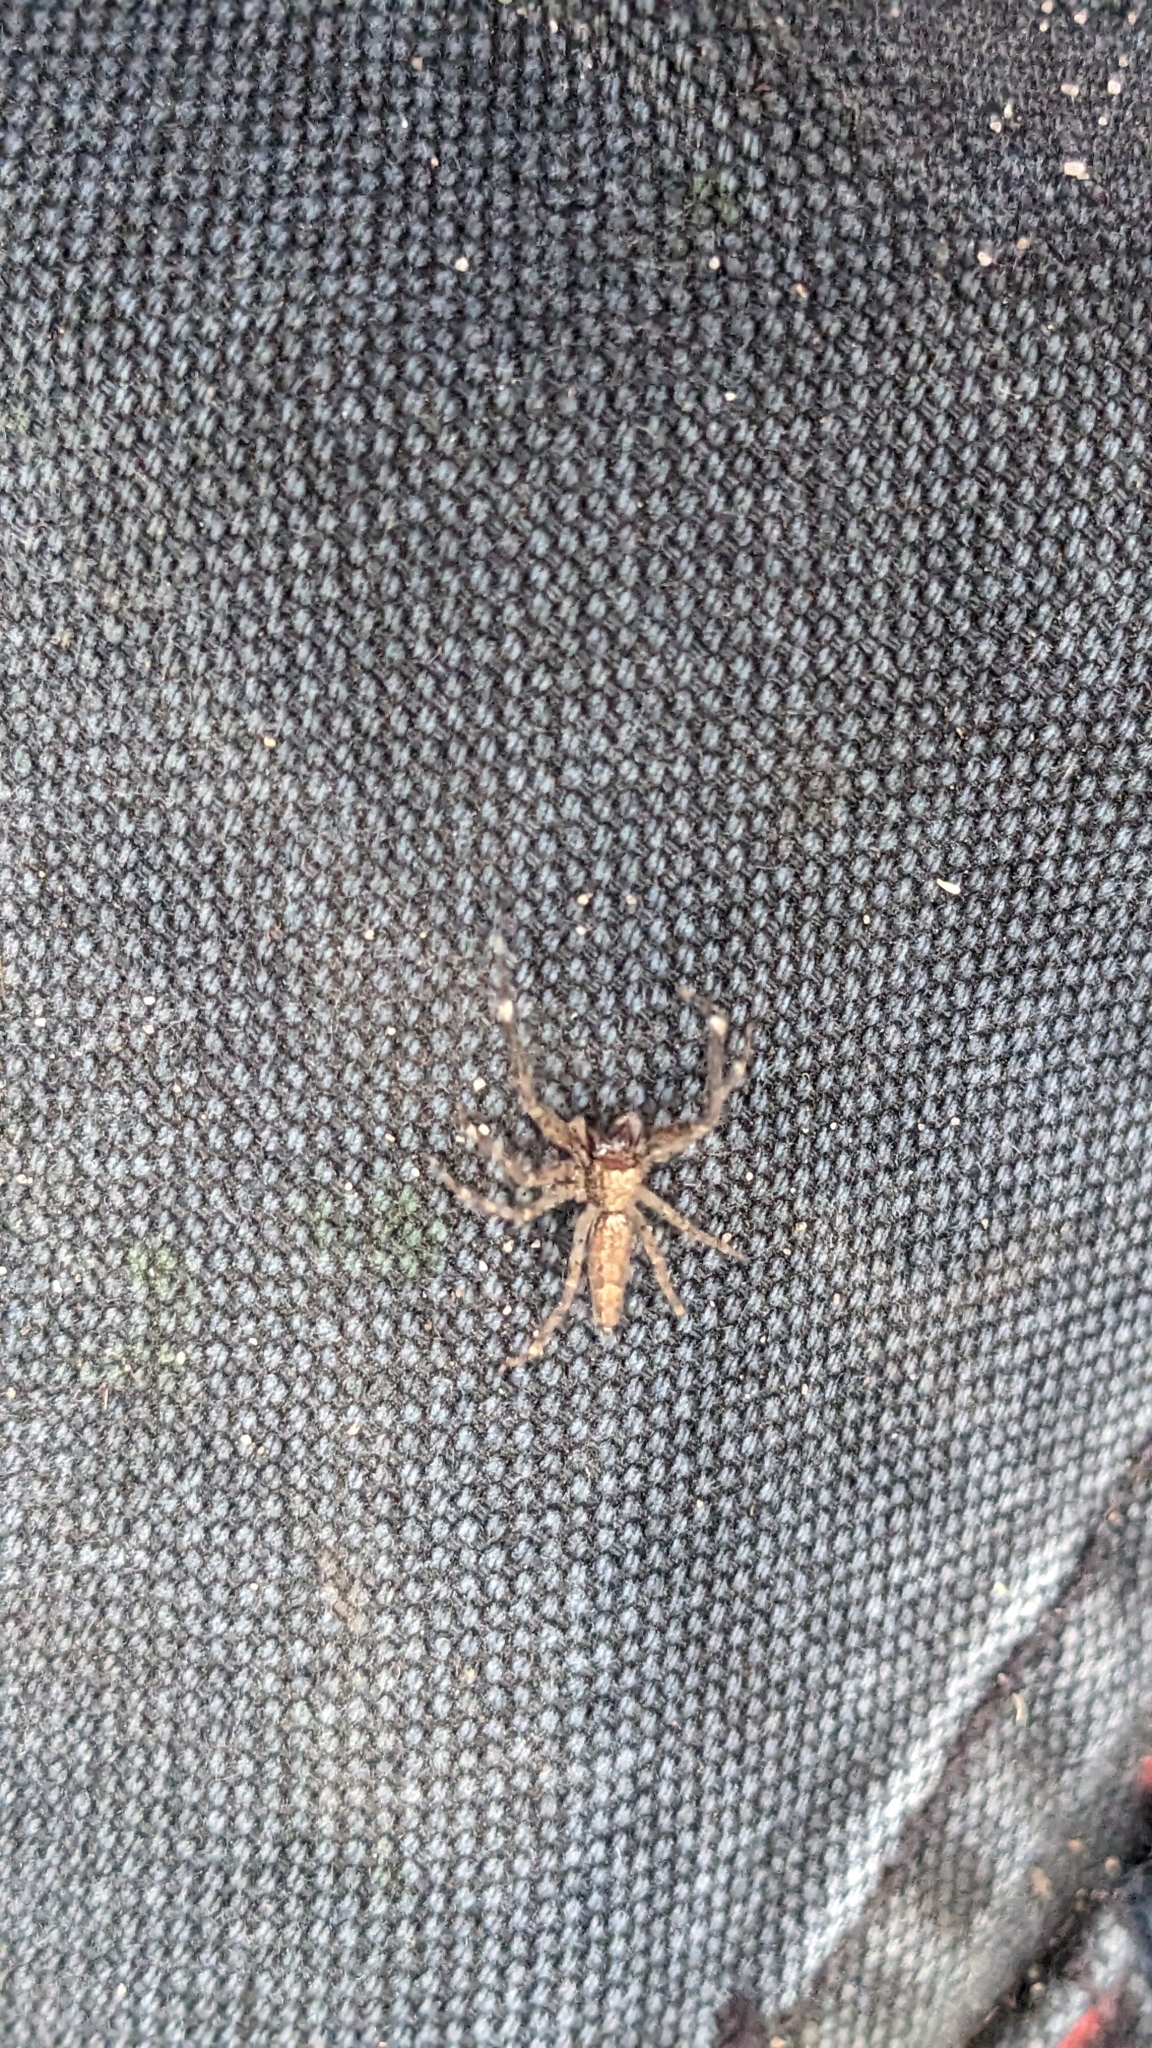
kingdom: Animalia
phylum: Arthropoda
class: Arachnida
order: Araneae
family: Salticidae
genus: Helpis
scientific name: Helpis minitabunda
